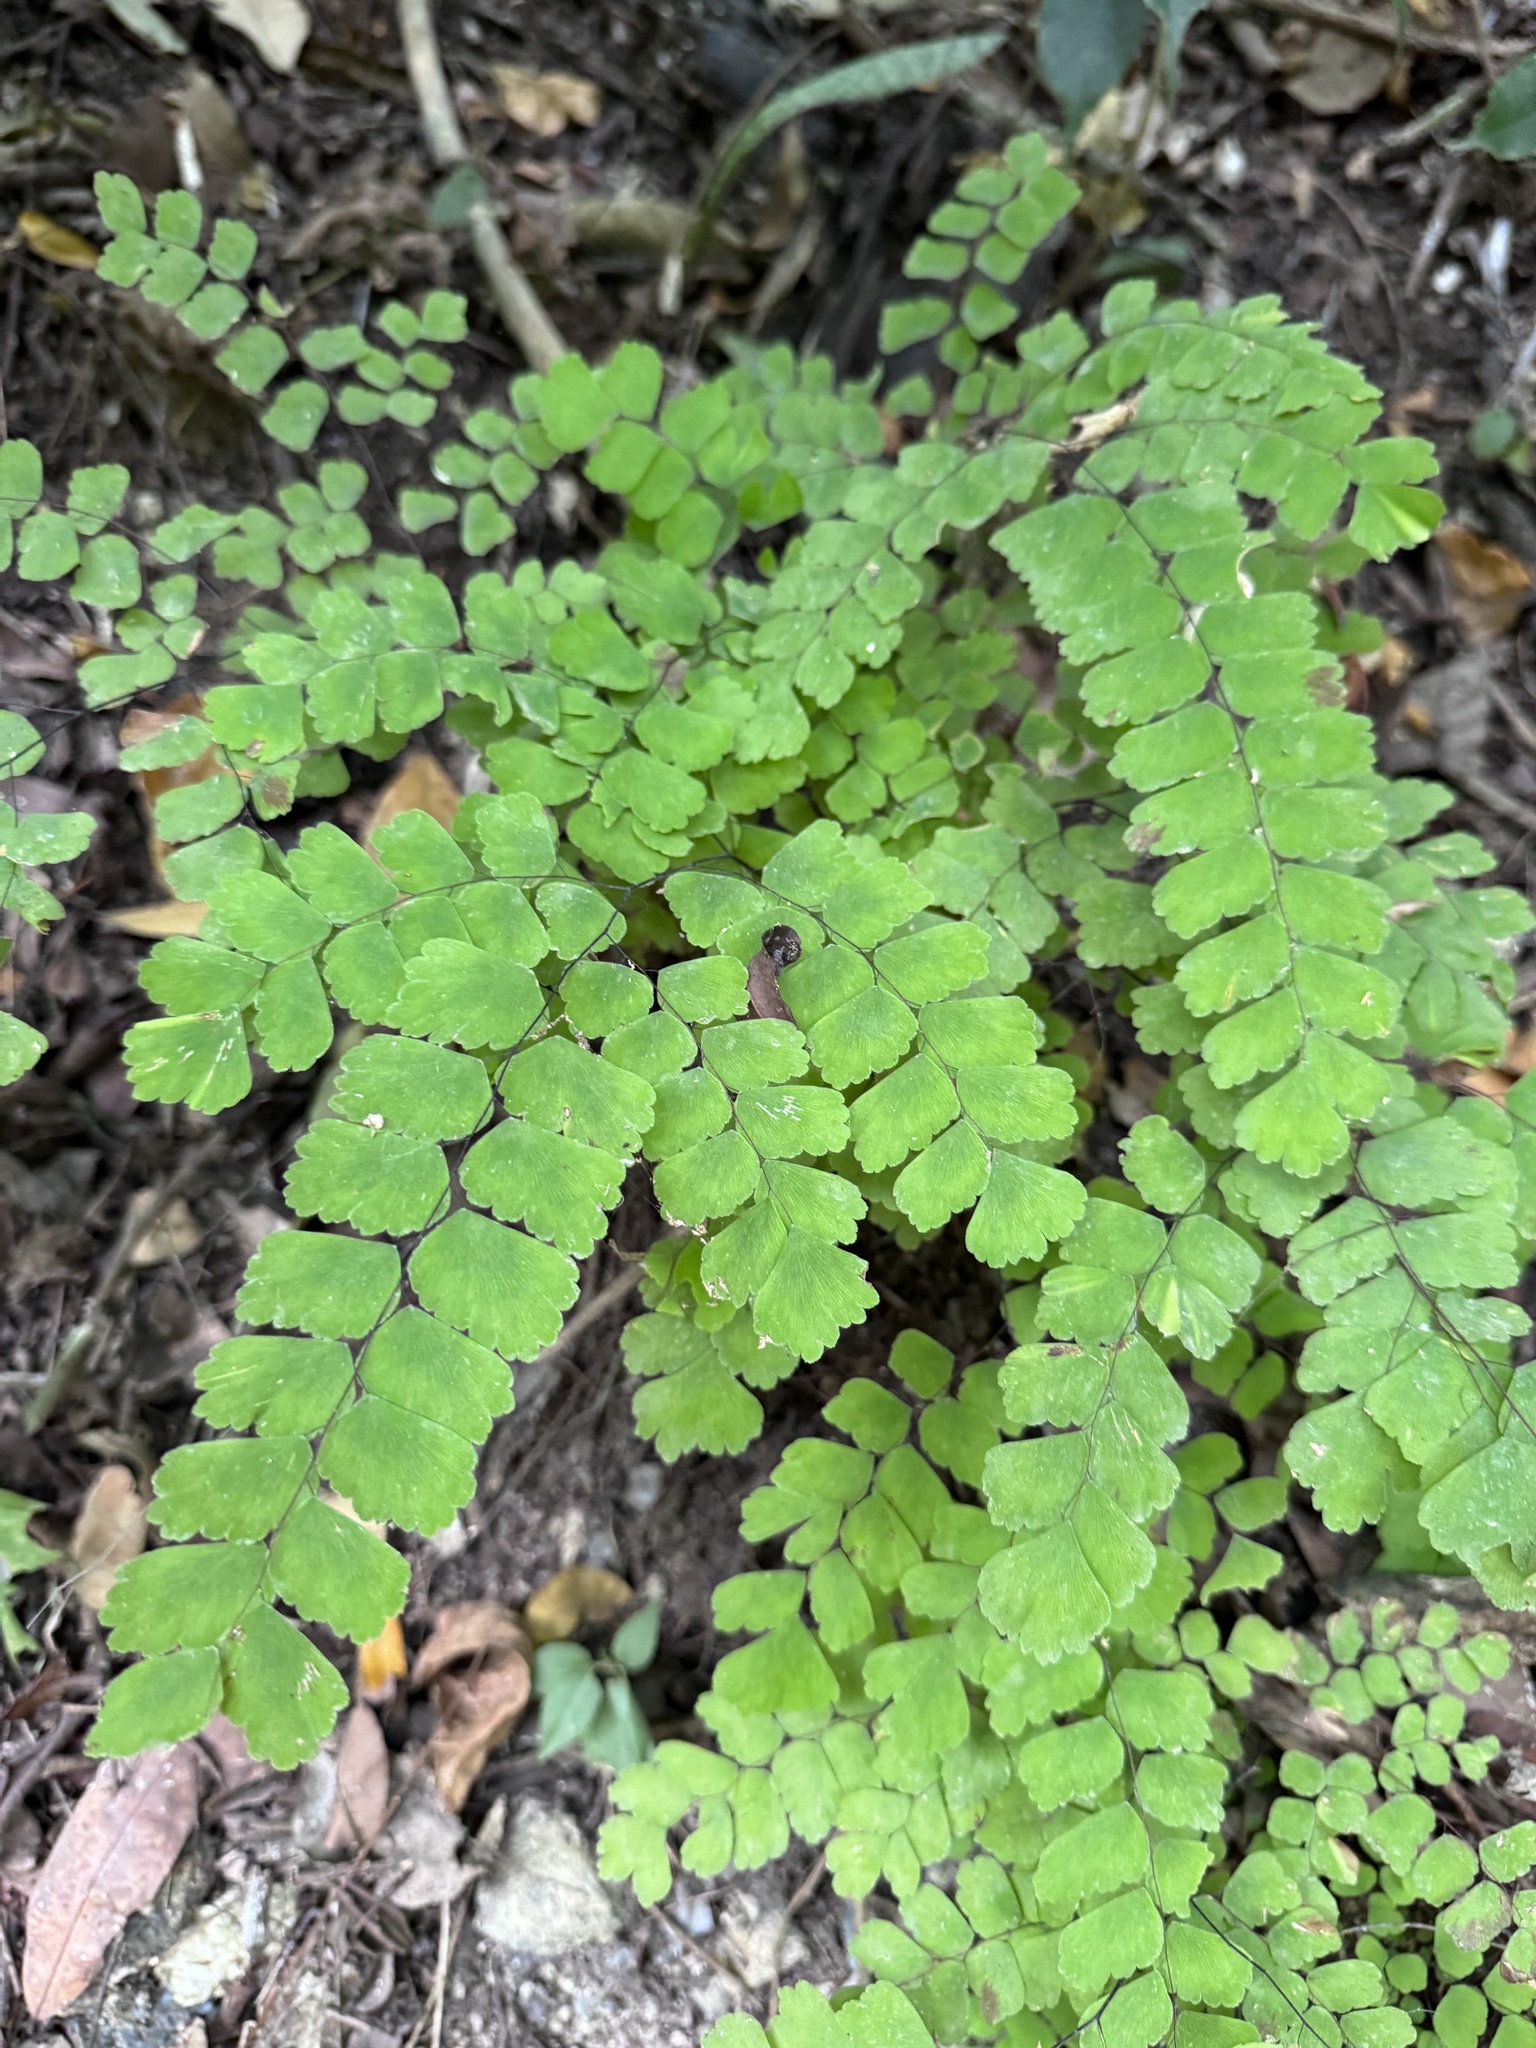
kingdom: Plantae
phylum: Tracheophyta
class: Polypodiopsida
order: Polypodiales
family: Pteridaceae
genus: Adiantum
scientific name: Adiantum amplum
